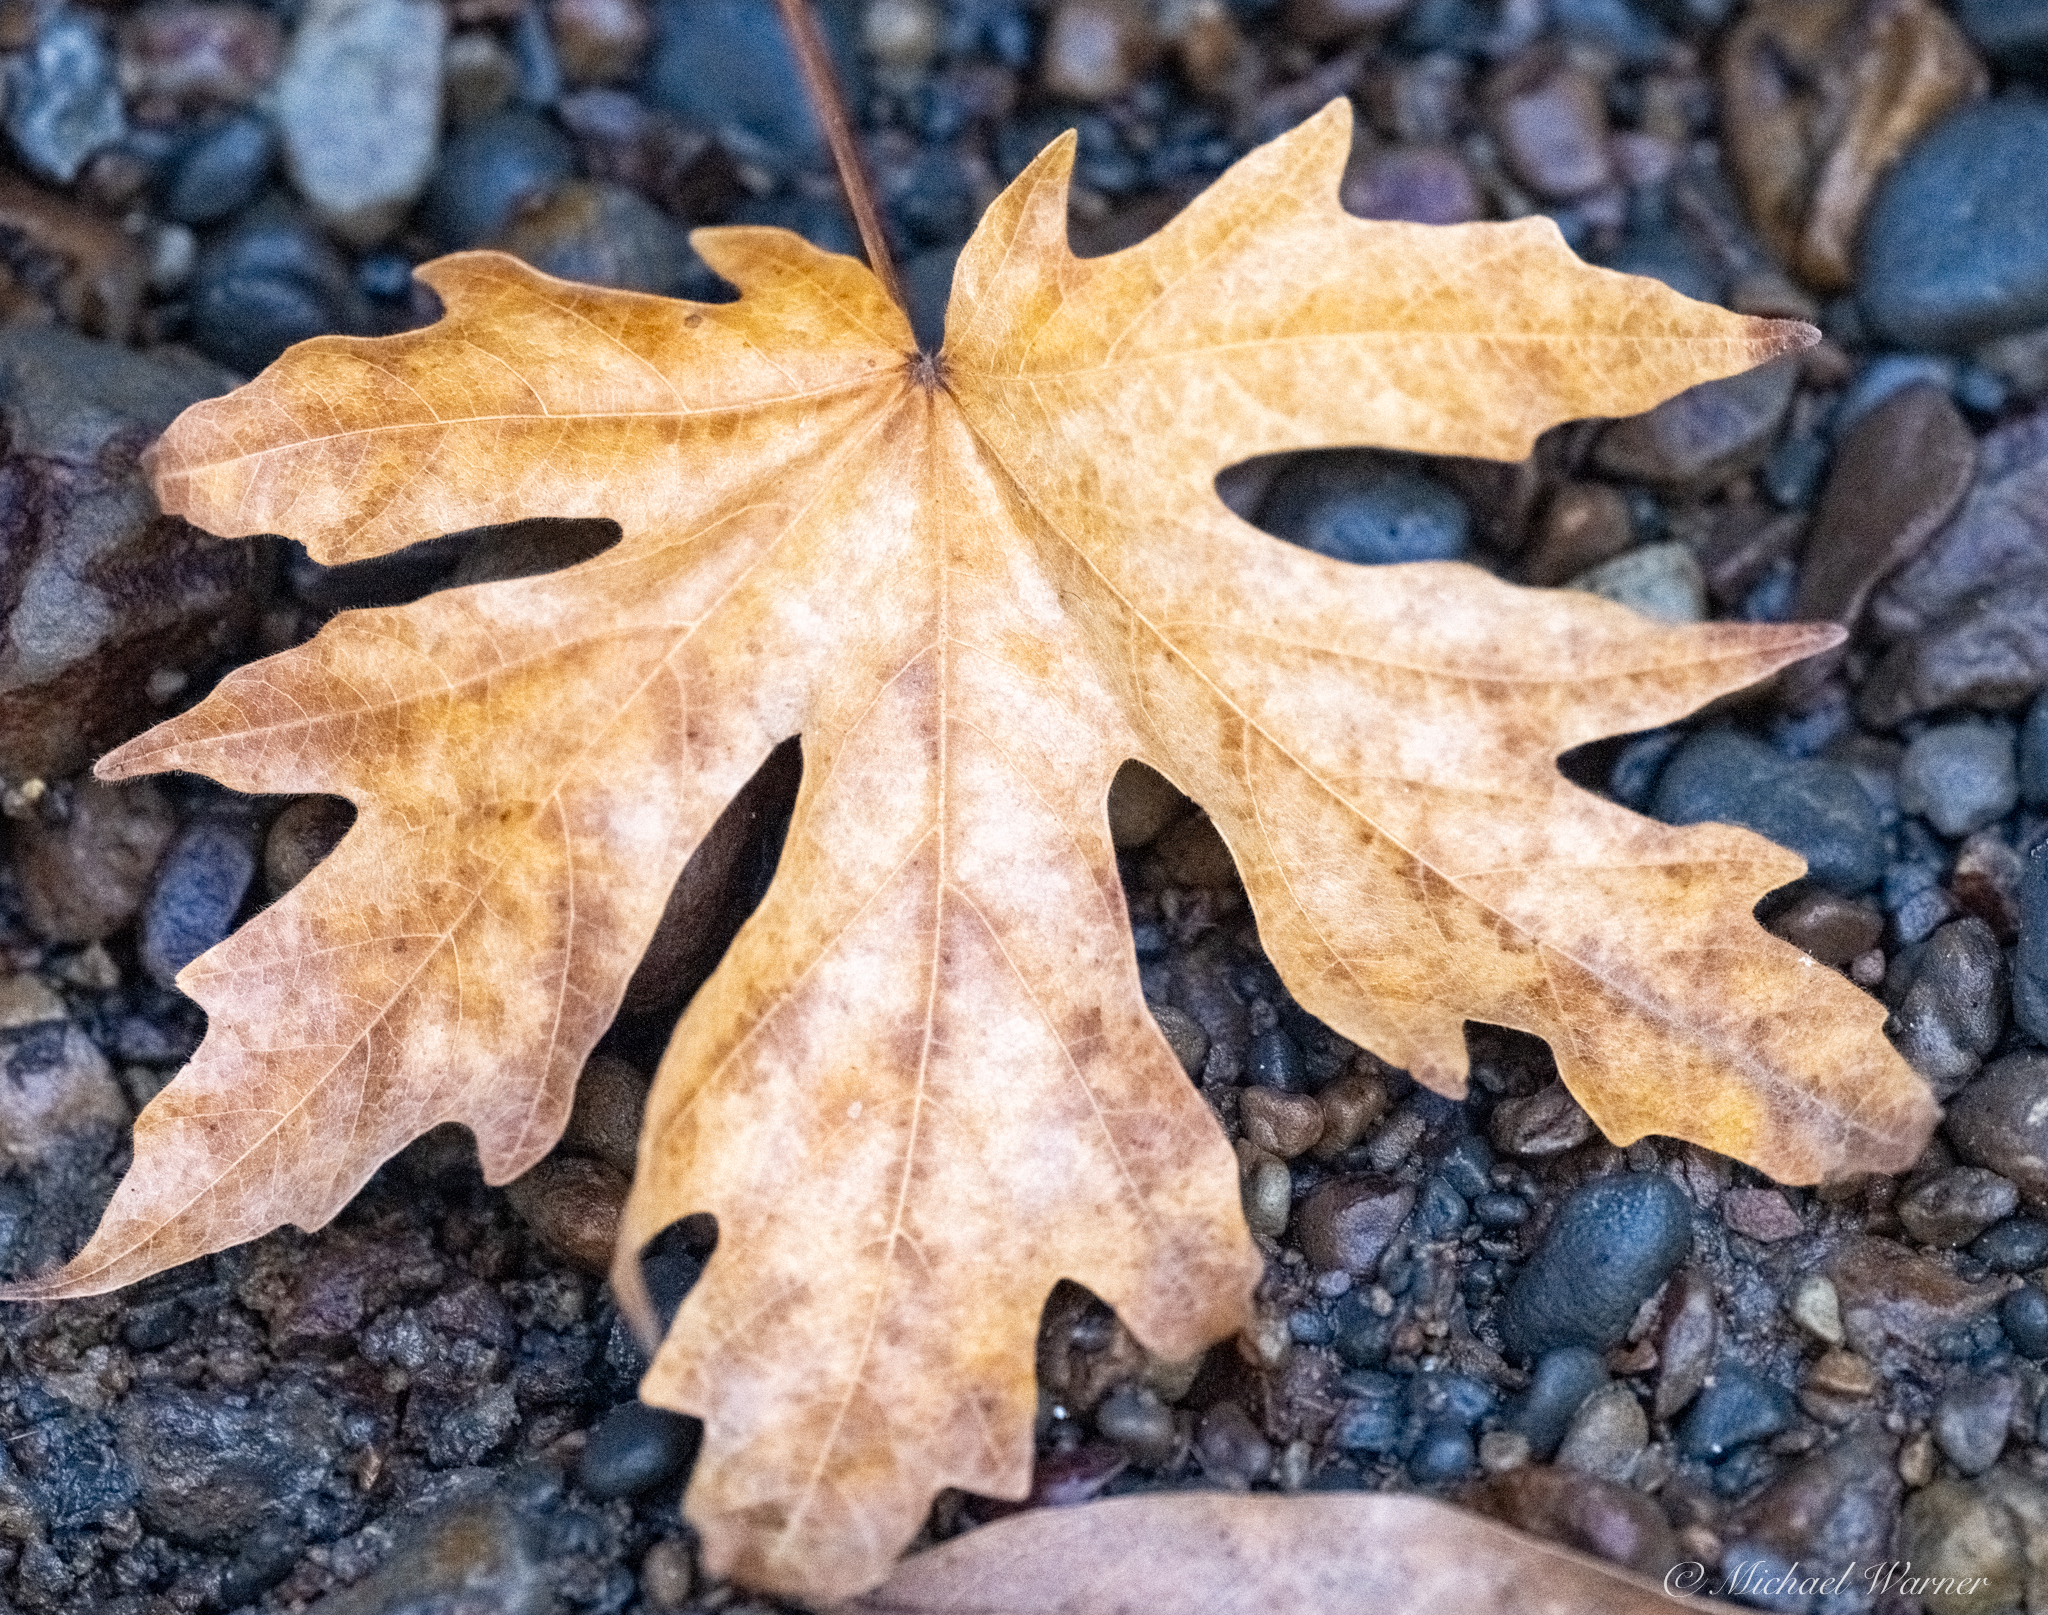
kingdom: Plantae
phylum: Tracheophyta
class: Magnoliopsida
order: Sapindales
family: Sapindaceae
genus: Acer
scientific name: Acer macrophyllum
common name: Oregon maple
